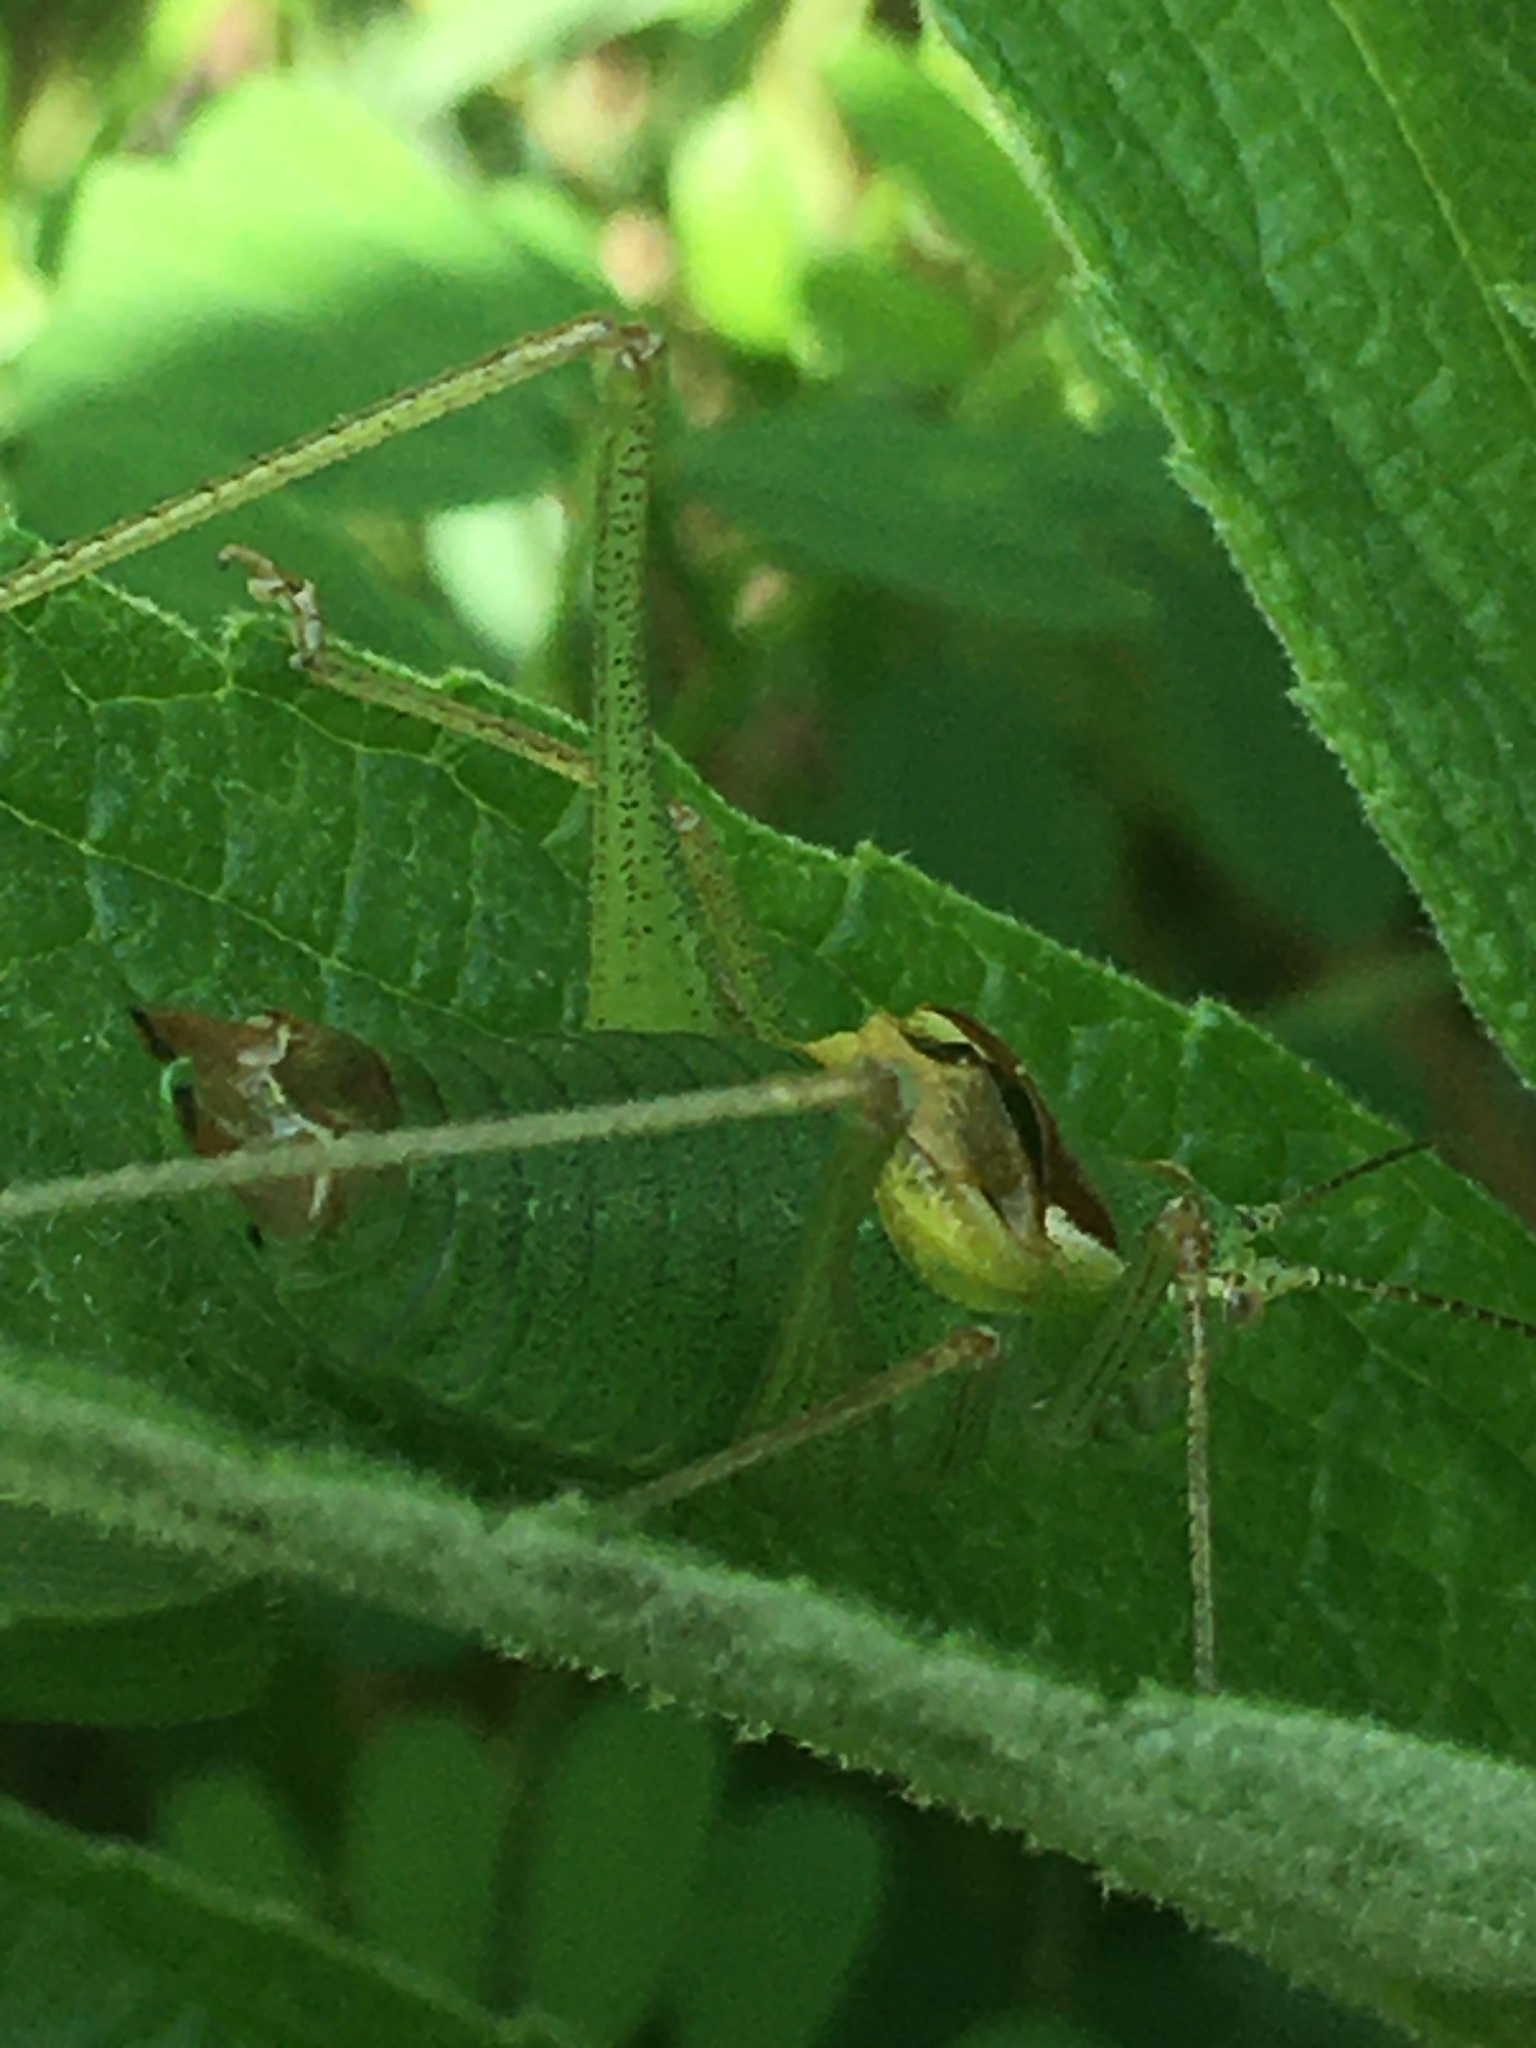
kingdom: Animalia
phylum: Arthropoda
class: Insecta
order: Orthoptera
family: Tettigoniidae
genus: Poecilimon
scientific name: Poecilimon tauricus
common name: Crimean bright bush-cricket
